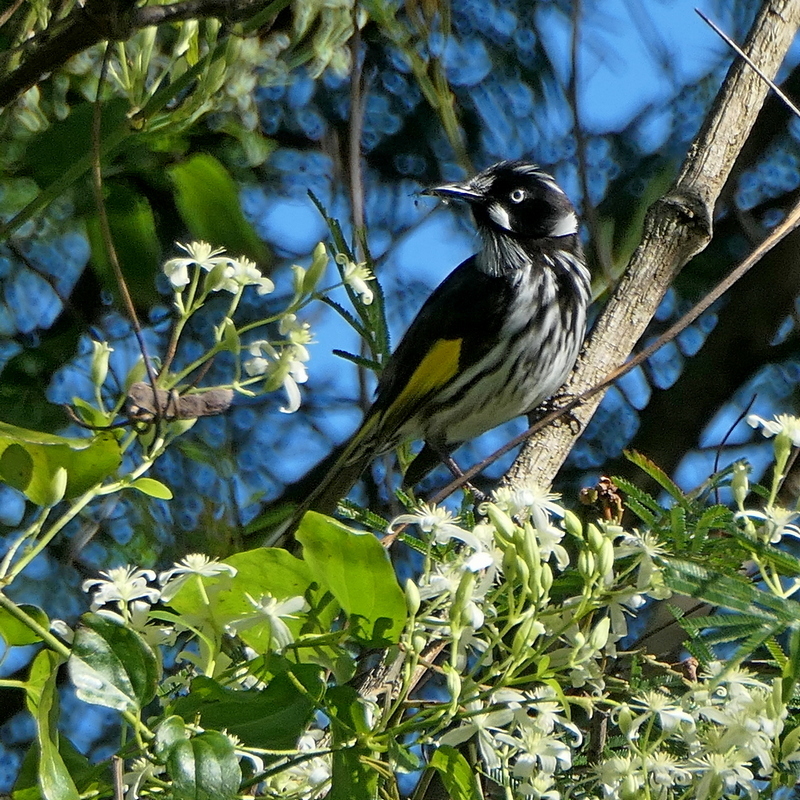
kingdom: Animalia
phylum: Chordata
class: Aves
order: Passeriformes
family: Meliphagidae
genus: Phylidonyris
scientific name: Phylidonyris novaehollandiae
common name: New holland honeyeater
